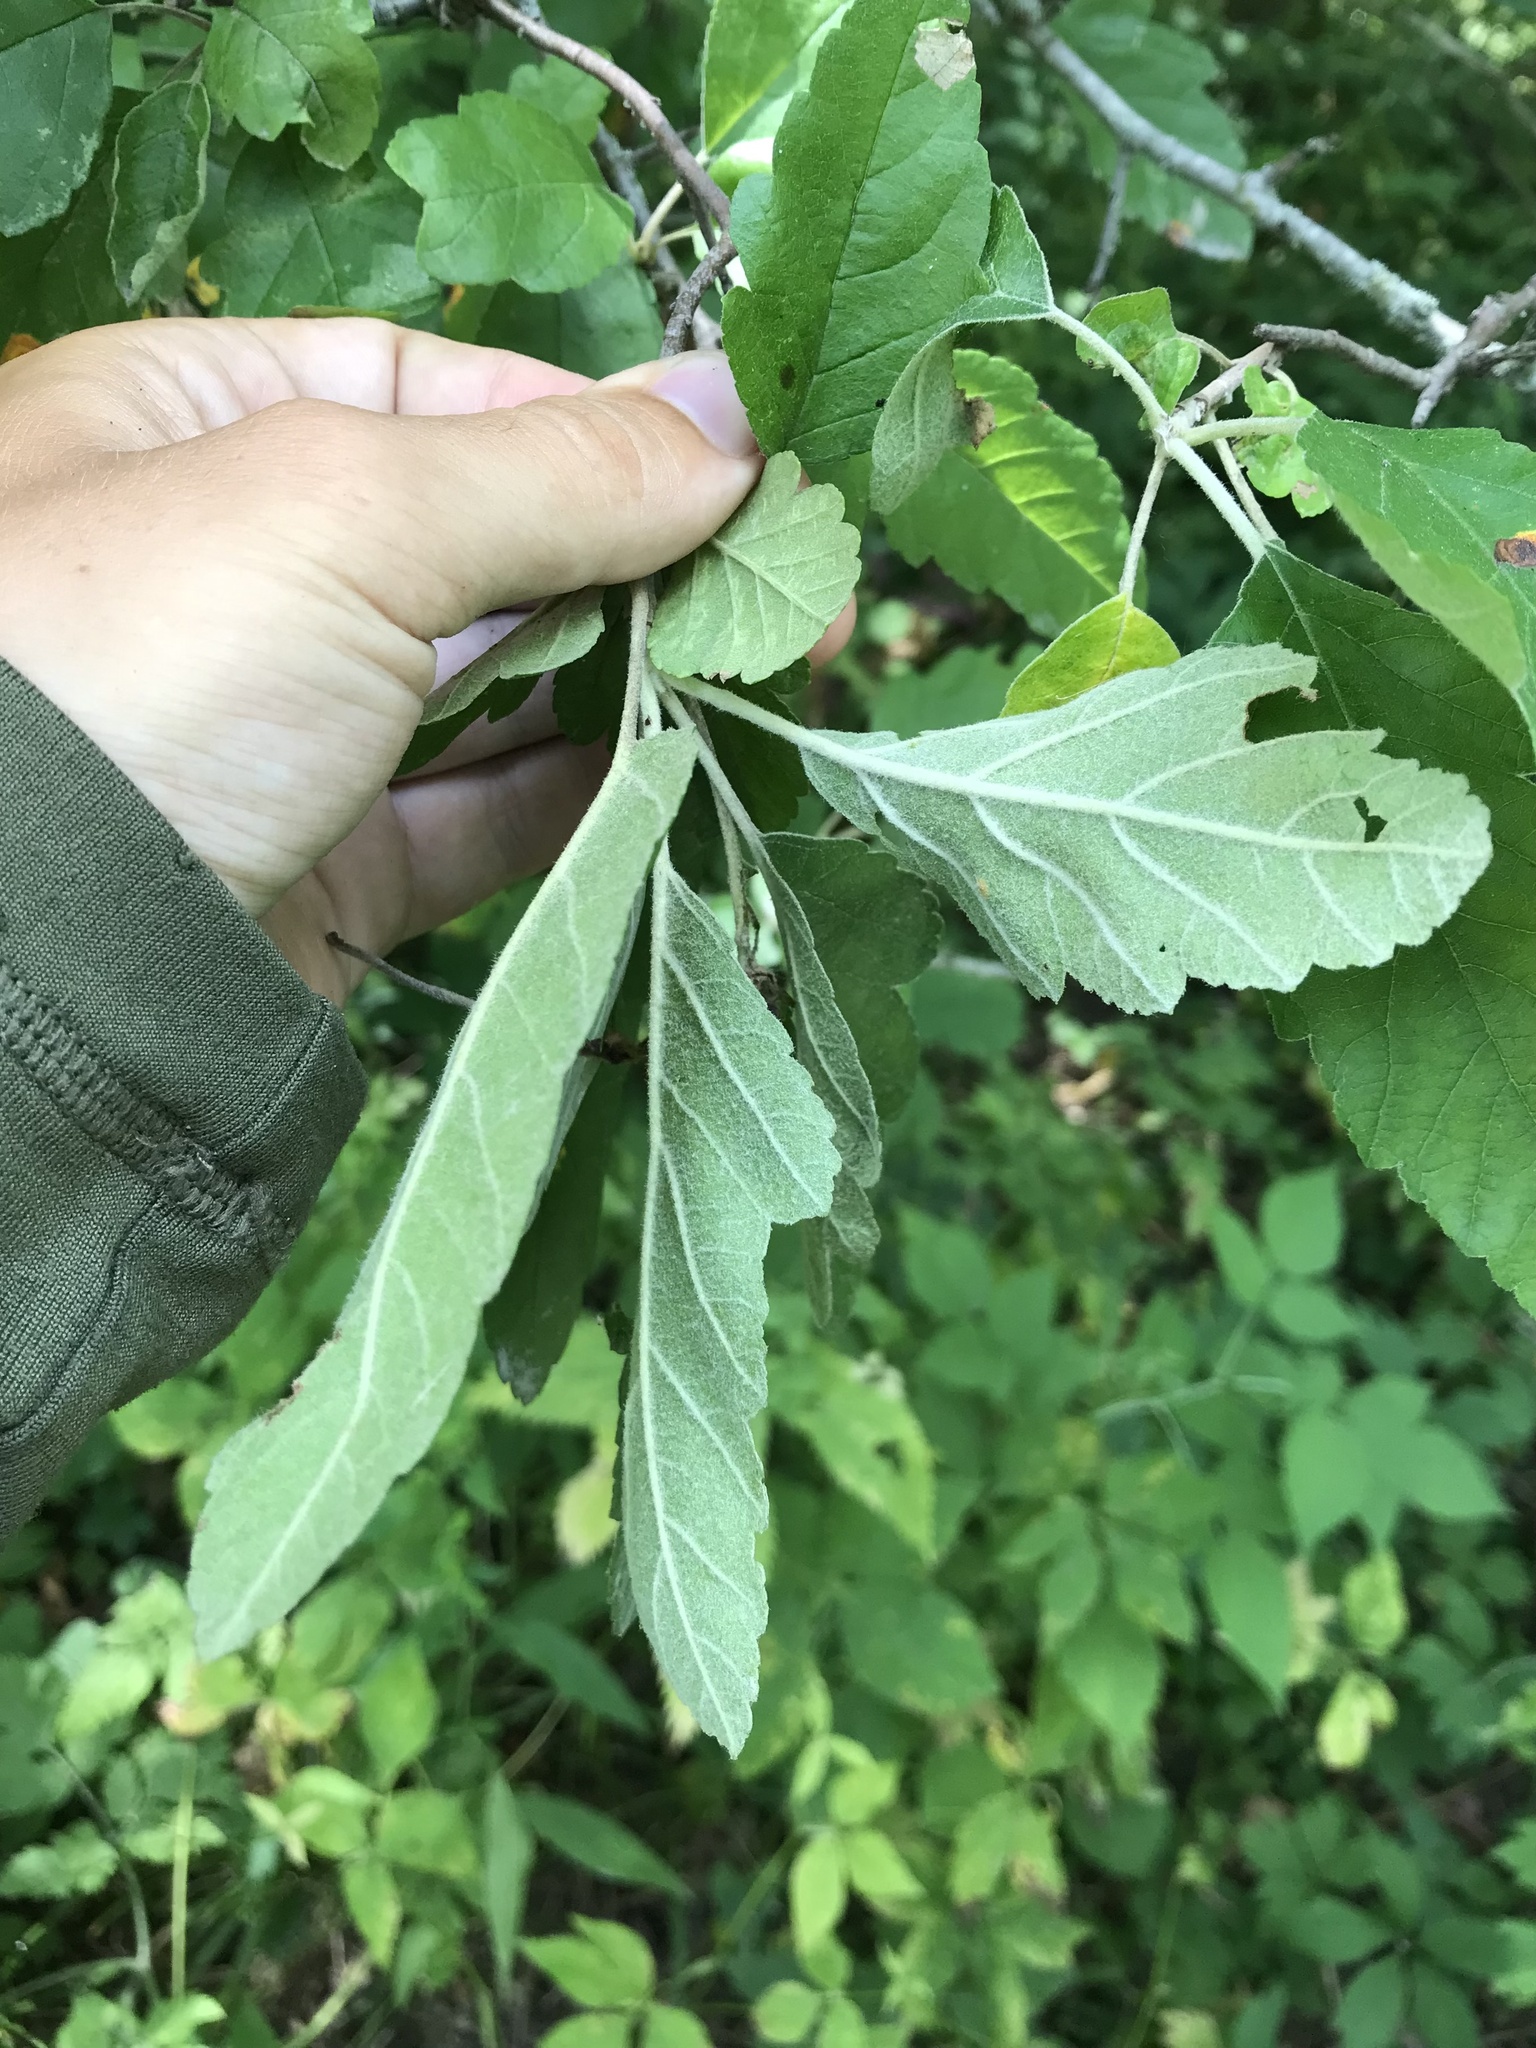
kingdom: Plantae
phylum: Tracheophyta
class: Magnoliopsida
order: Rosales
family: Rosaceae
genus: Malus
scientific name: Malus ioensis
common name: Iowa crab apple
